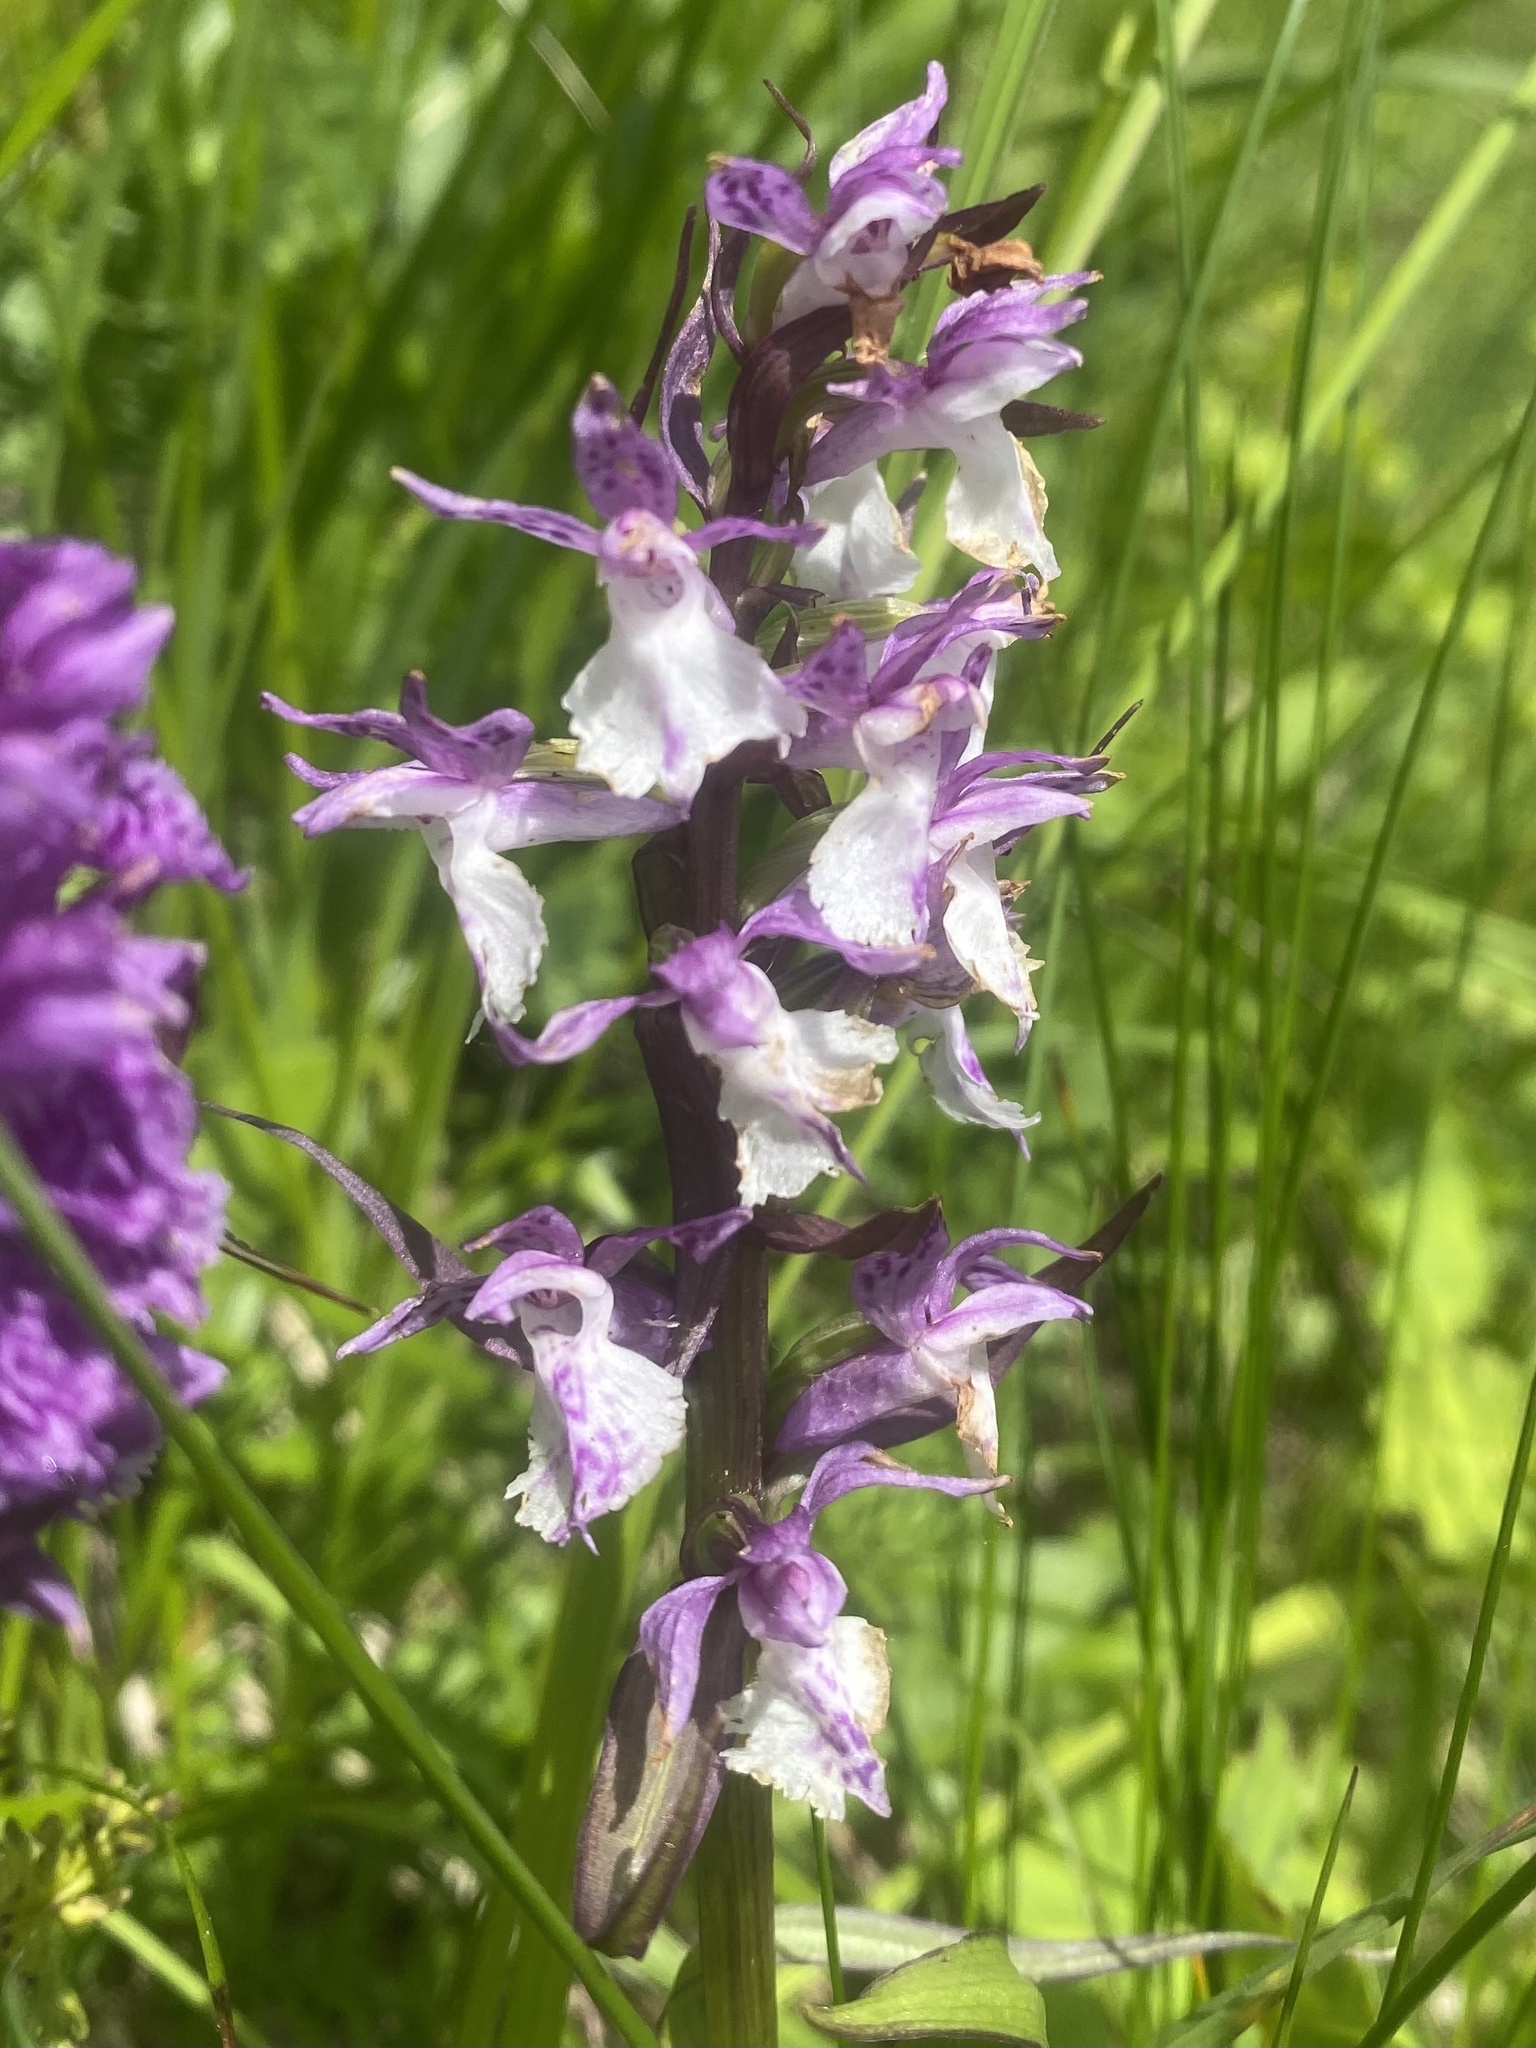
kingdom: Plantae
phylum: Tracheophyta
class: Liliopsida
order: Asparagales
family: Orchidaceae
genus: Dactylorhiza
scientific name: Dactylorhiza euxina
